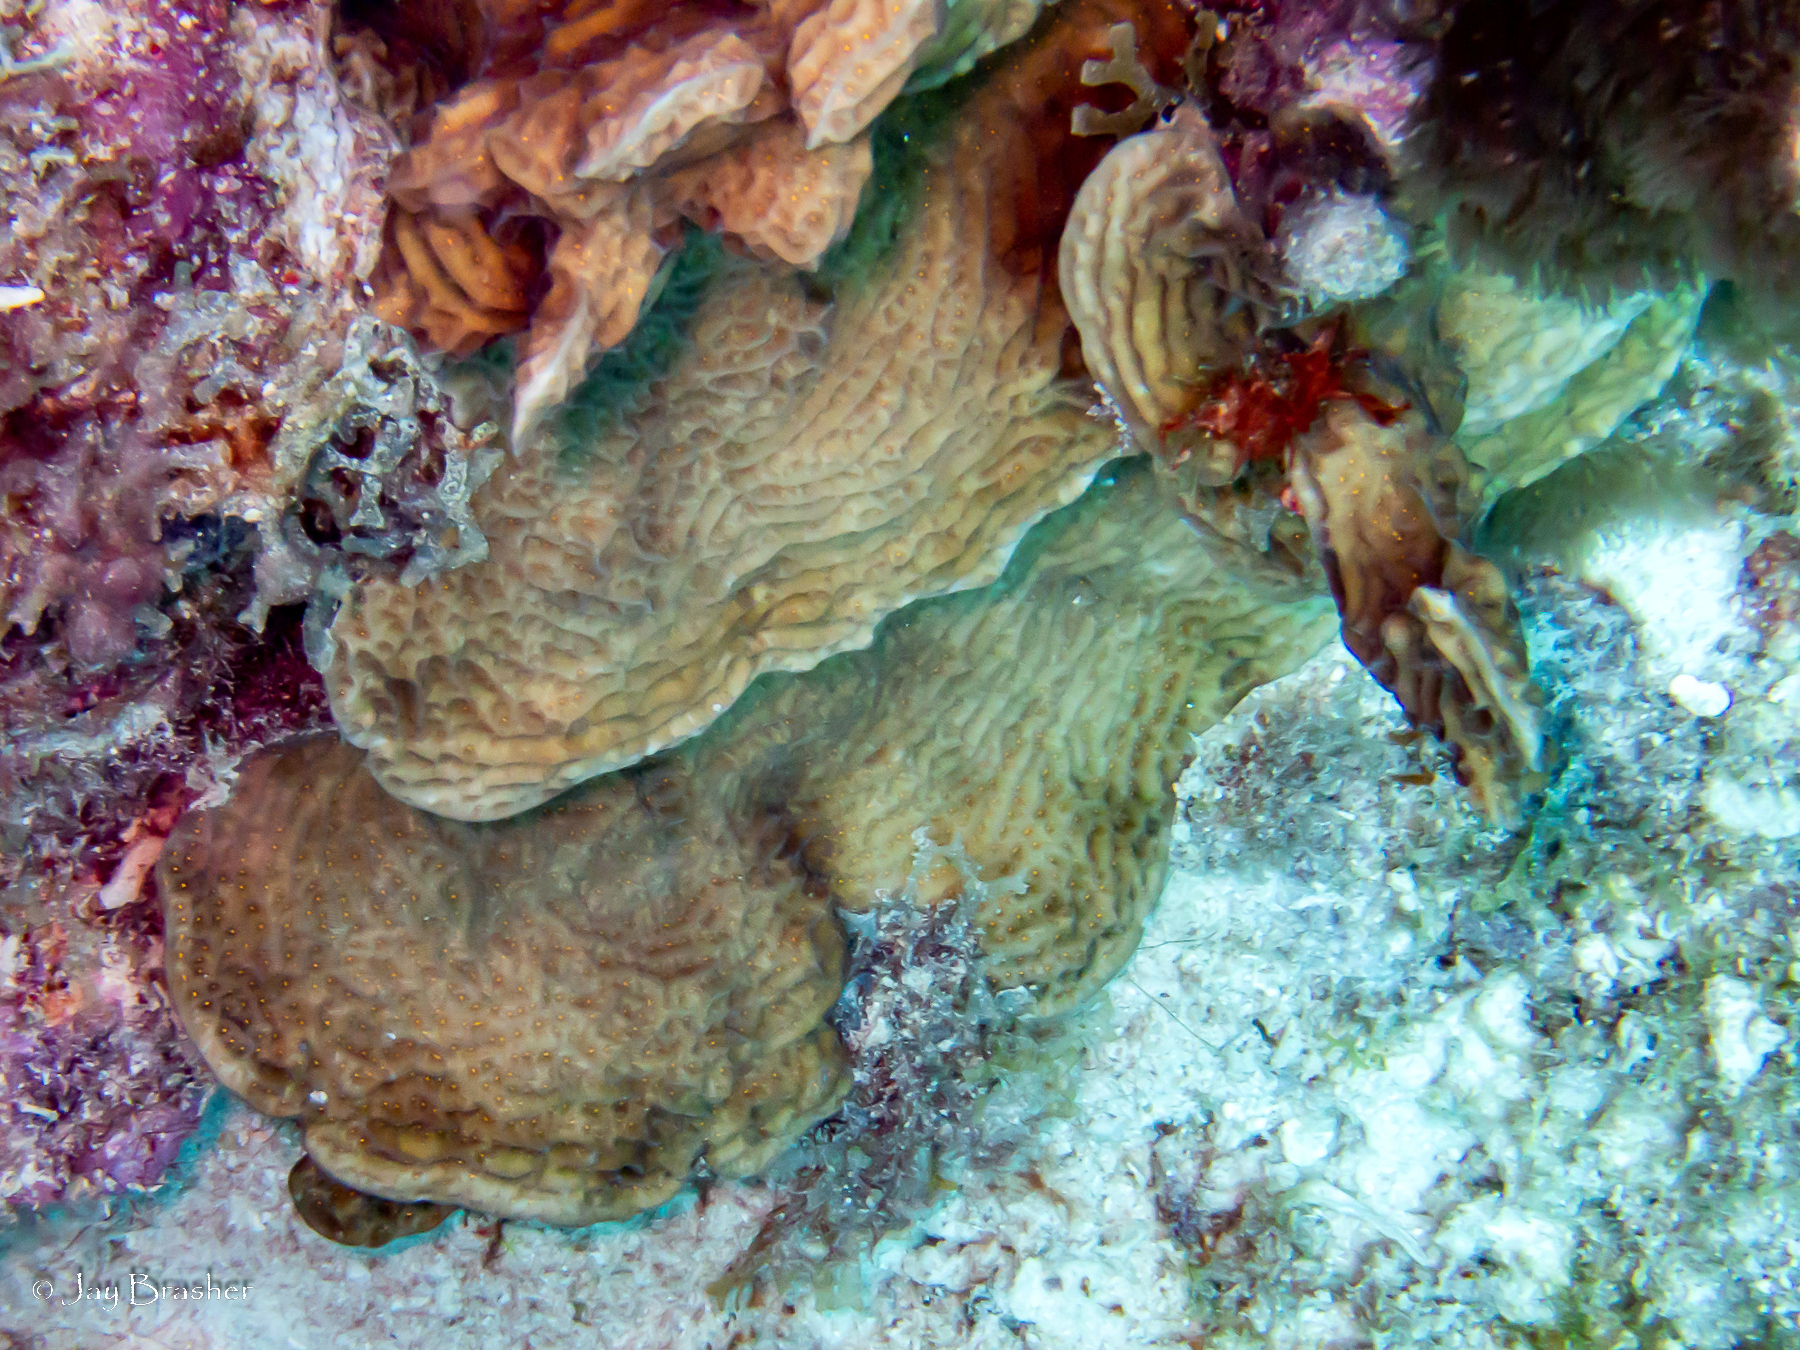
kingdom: Animalia
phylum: Cnidaria
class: Anthozoa
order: Scleractinia
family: Agariciidae
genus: Agaricia
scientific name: Agaricia agaricites
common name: Lettuce coral
